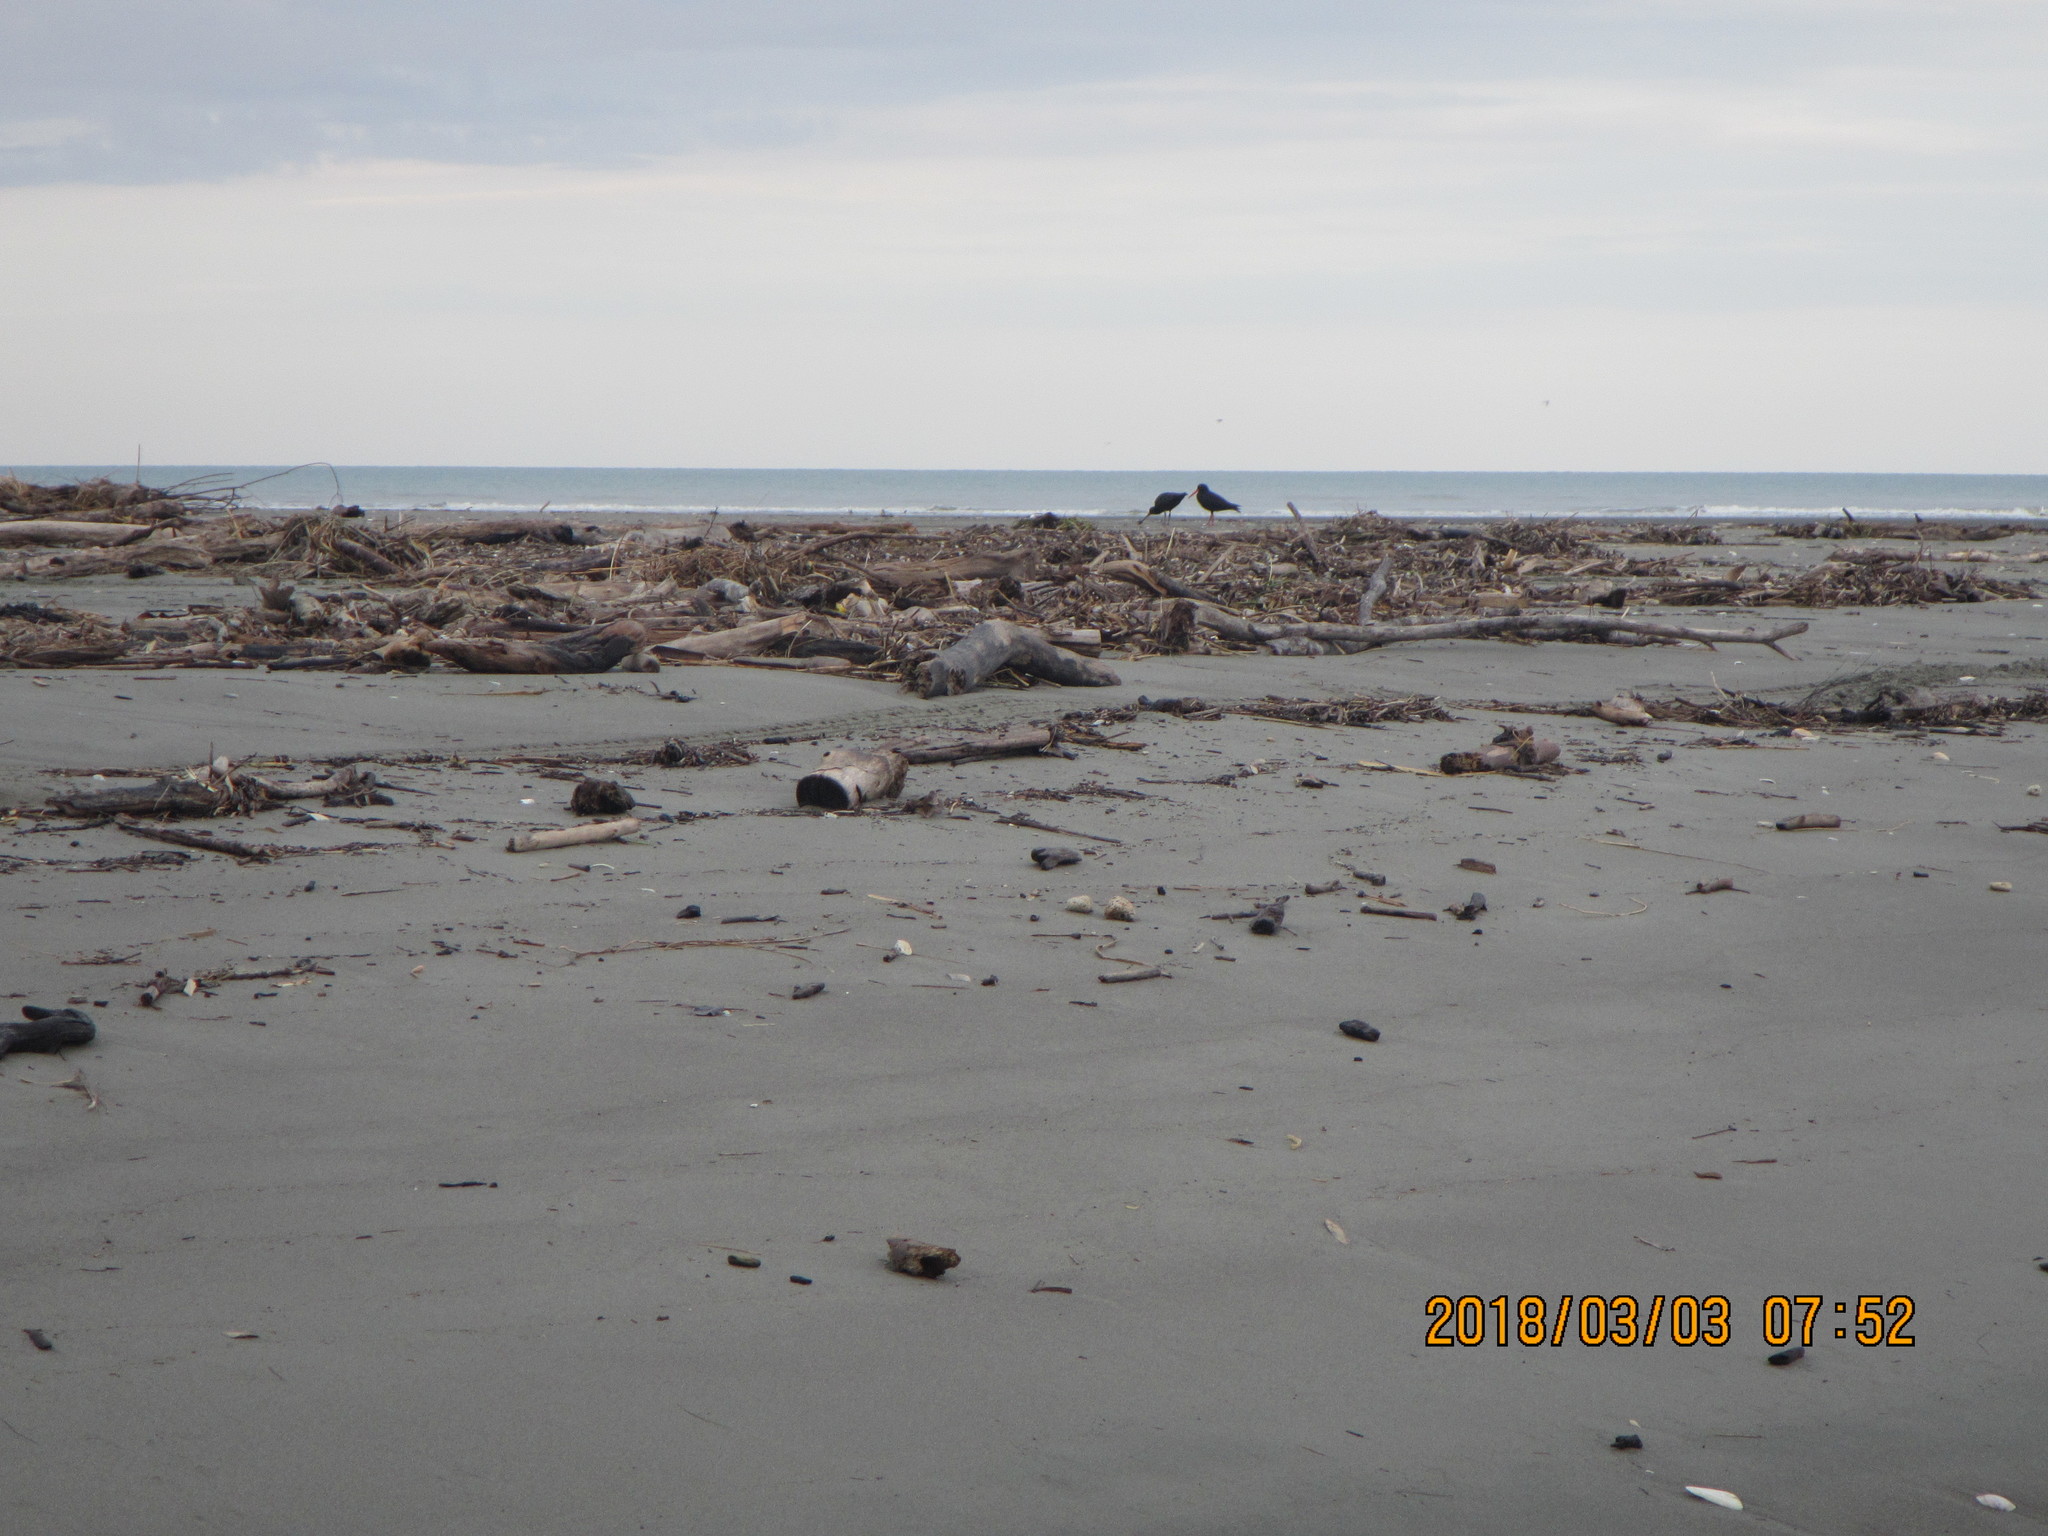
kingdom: Animalia
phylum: Chordata
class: Aves
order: Charadriiformes
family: Haematopodidae
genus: Haematopus
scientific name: Haematopus unicolor
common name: Variable oystercatcher
